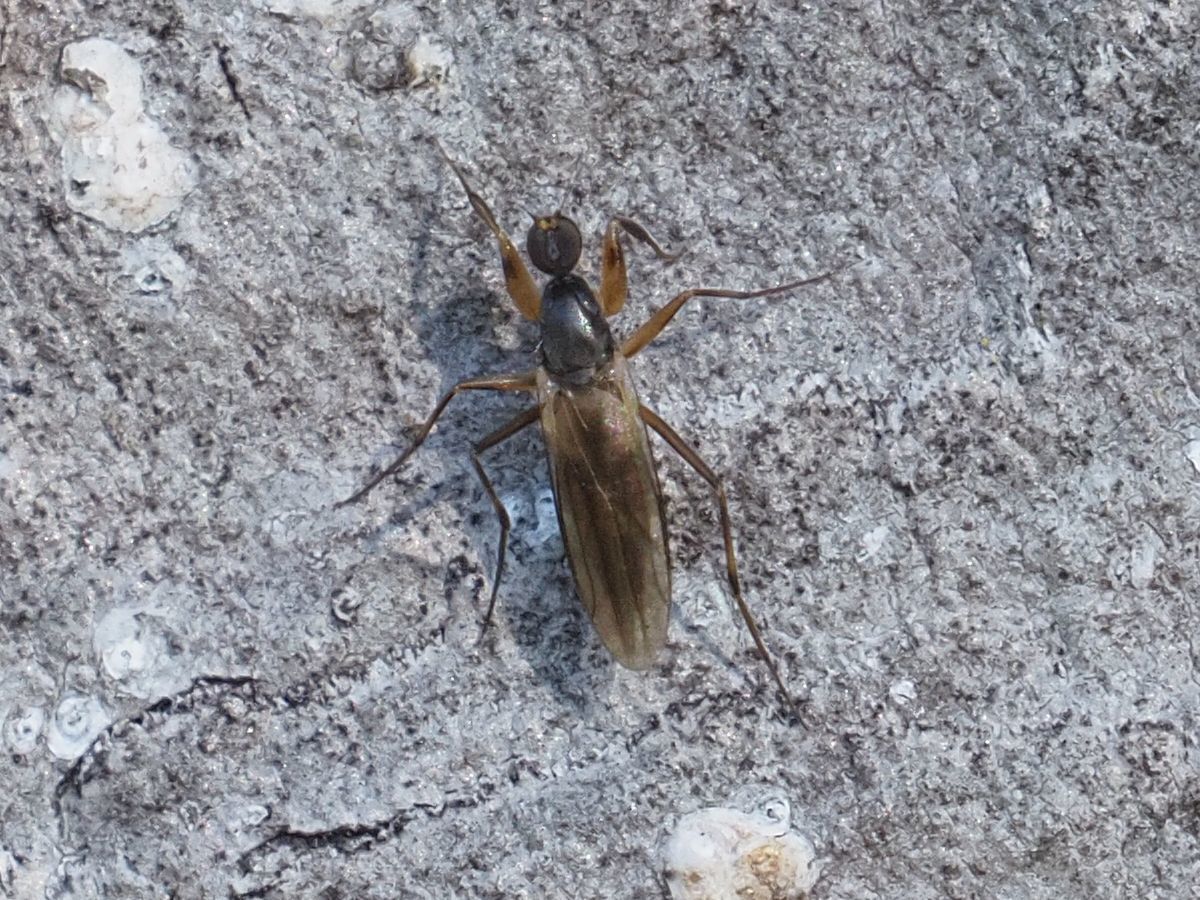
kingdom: Animalia
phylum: Arthropoda
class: Insecta
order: Diptera
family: Hybotidae
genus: Tachypeza
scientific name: Tachypeza nubila
